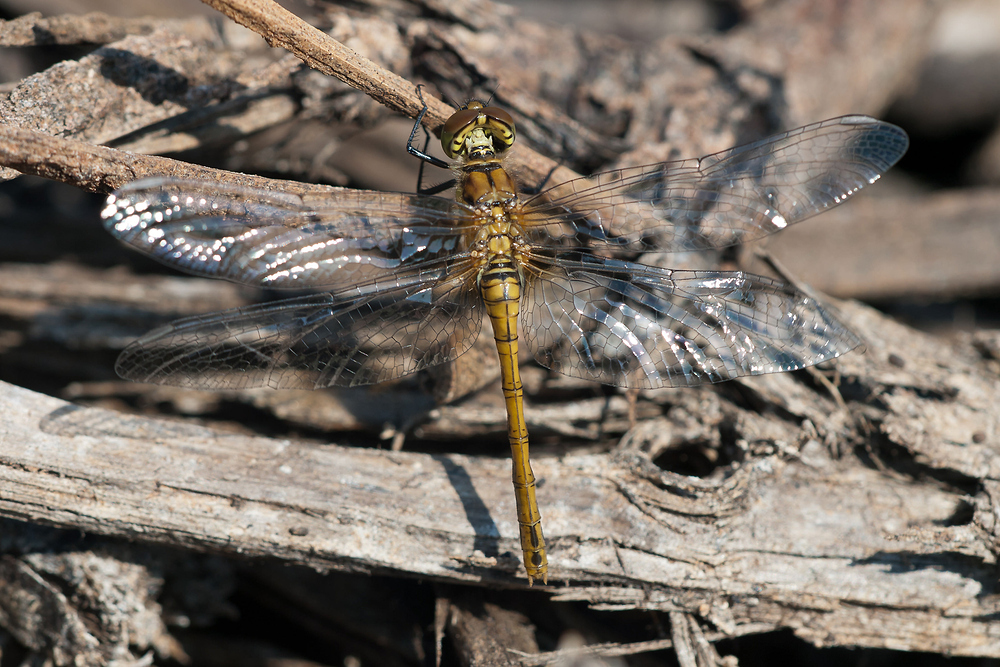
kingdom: Animalia
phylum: Arthropoda
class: Insecta
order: Odonata
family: Libellulidae
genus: Sympetrum
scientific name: Sympetrum sanguineum
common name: Ruddy darter
